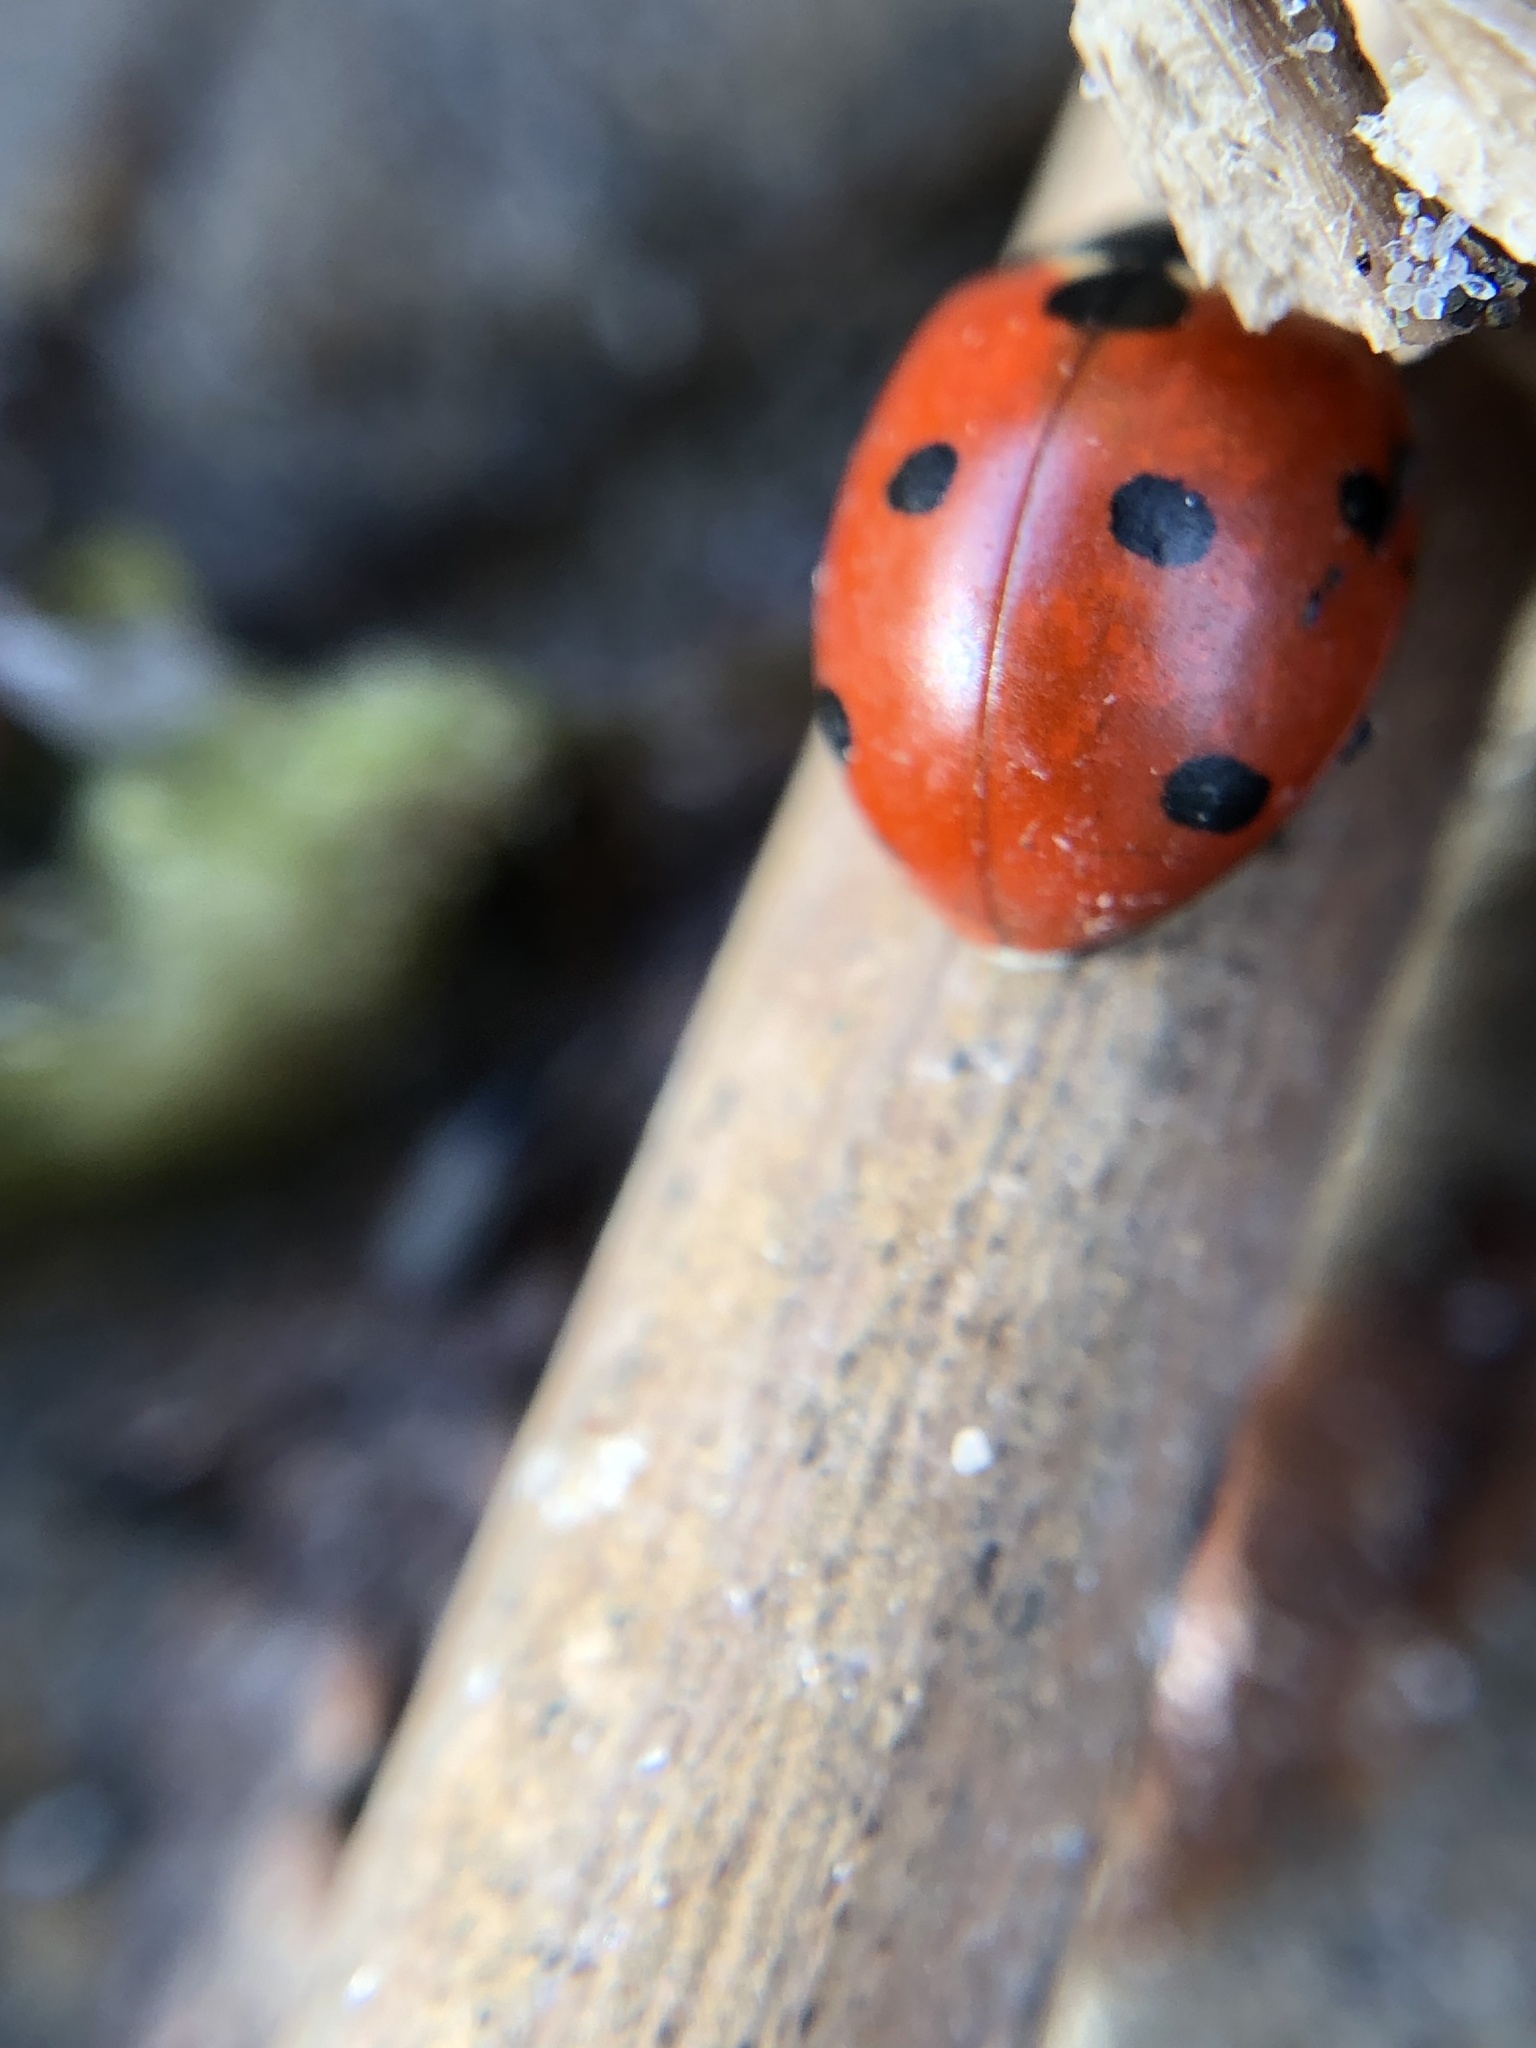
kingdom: Animalia
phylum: Arthropoda
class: Insecta
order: Coleoptera
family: Coccinellidae
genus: Coccinella
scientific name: Coccinella septempunctata
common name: Sevenspotted lady beetle
